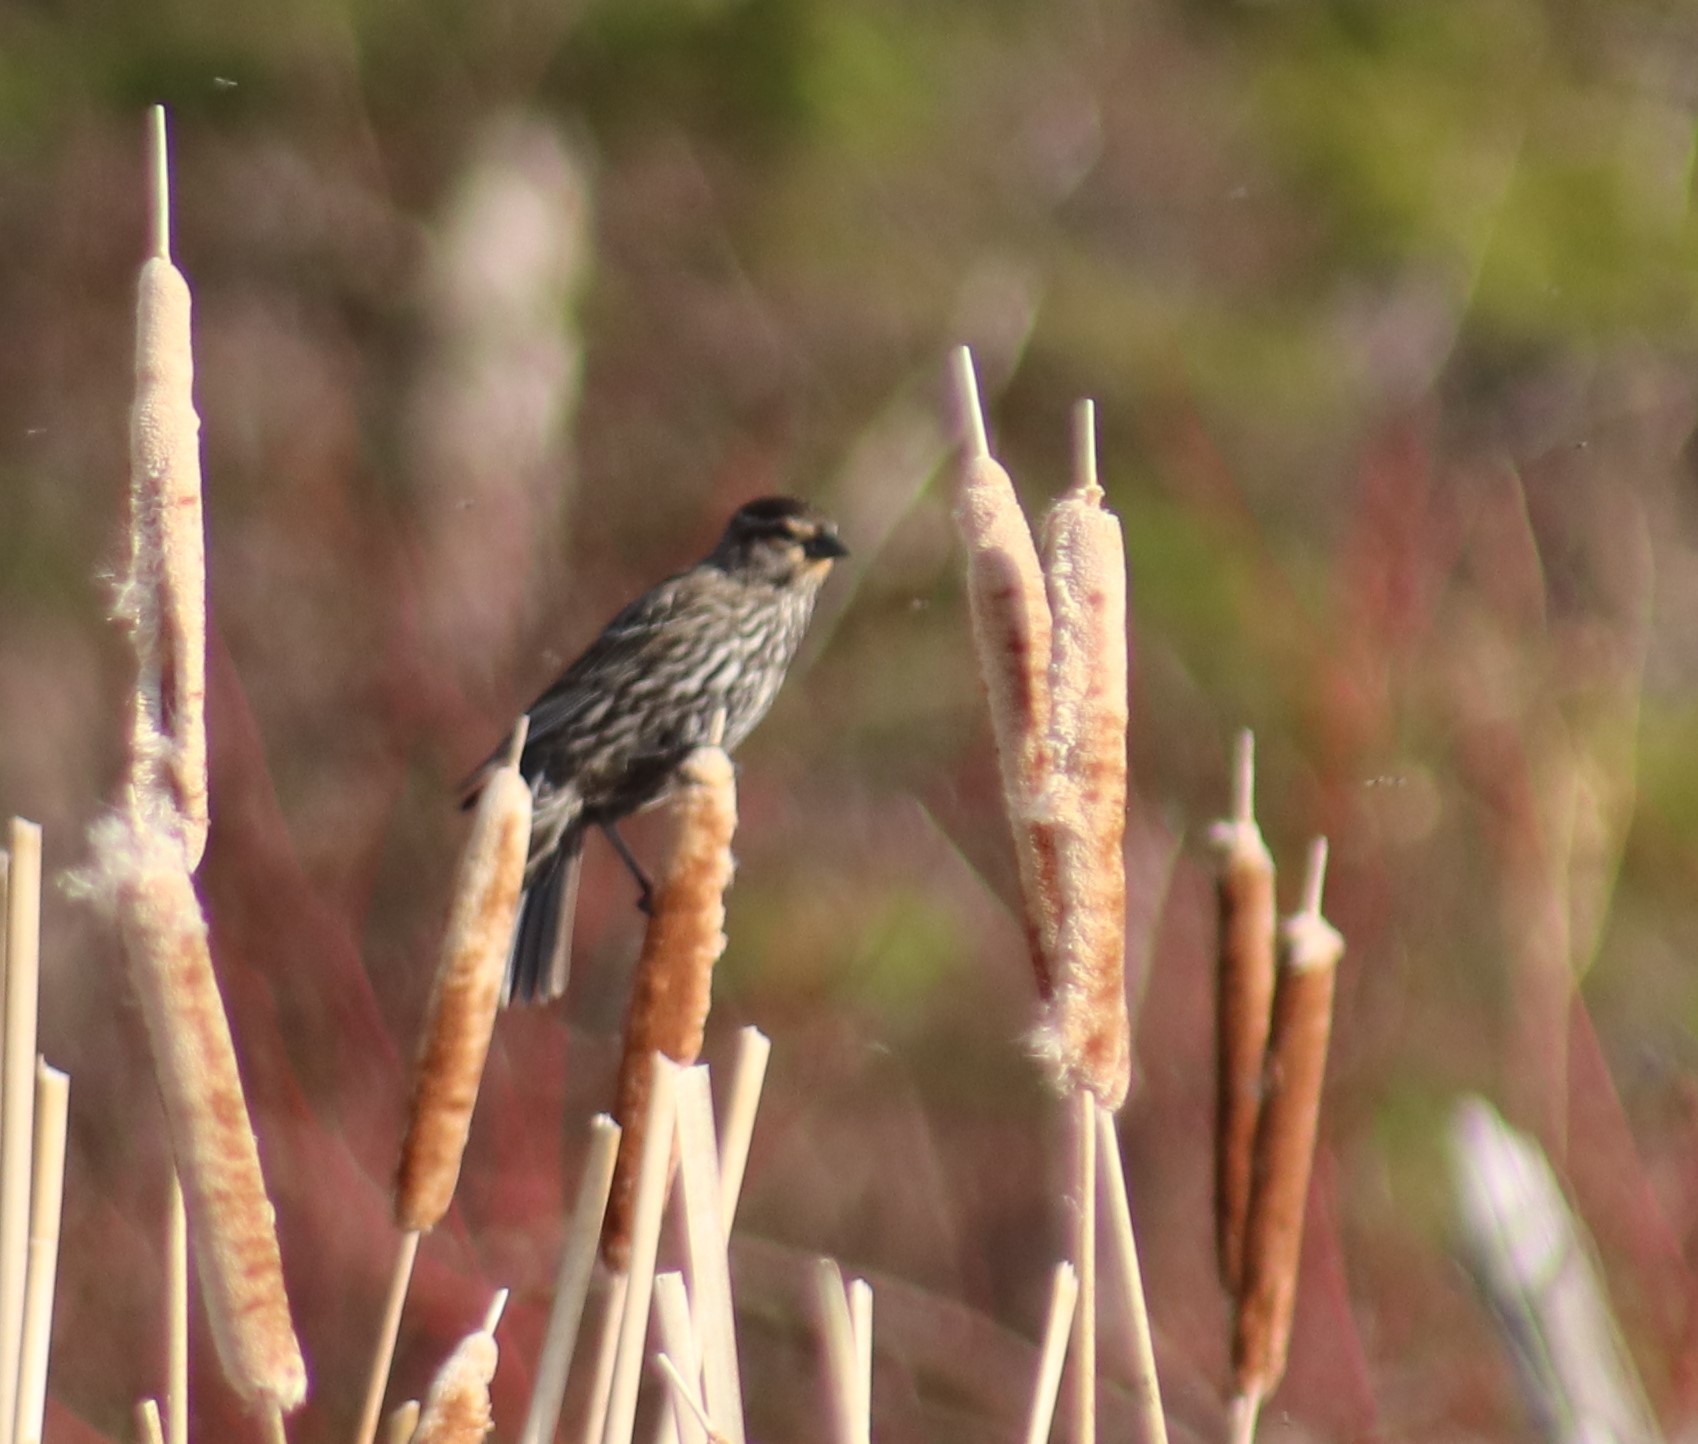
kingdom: Animalia
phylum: Chordata
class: Aves
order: Passeriformes
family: Icteridae
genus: Agelaius
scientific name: Agelaius phoeniceus
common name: Red-winged blackbird
